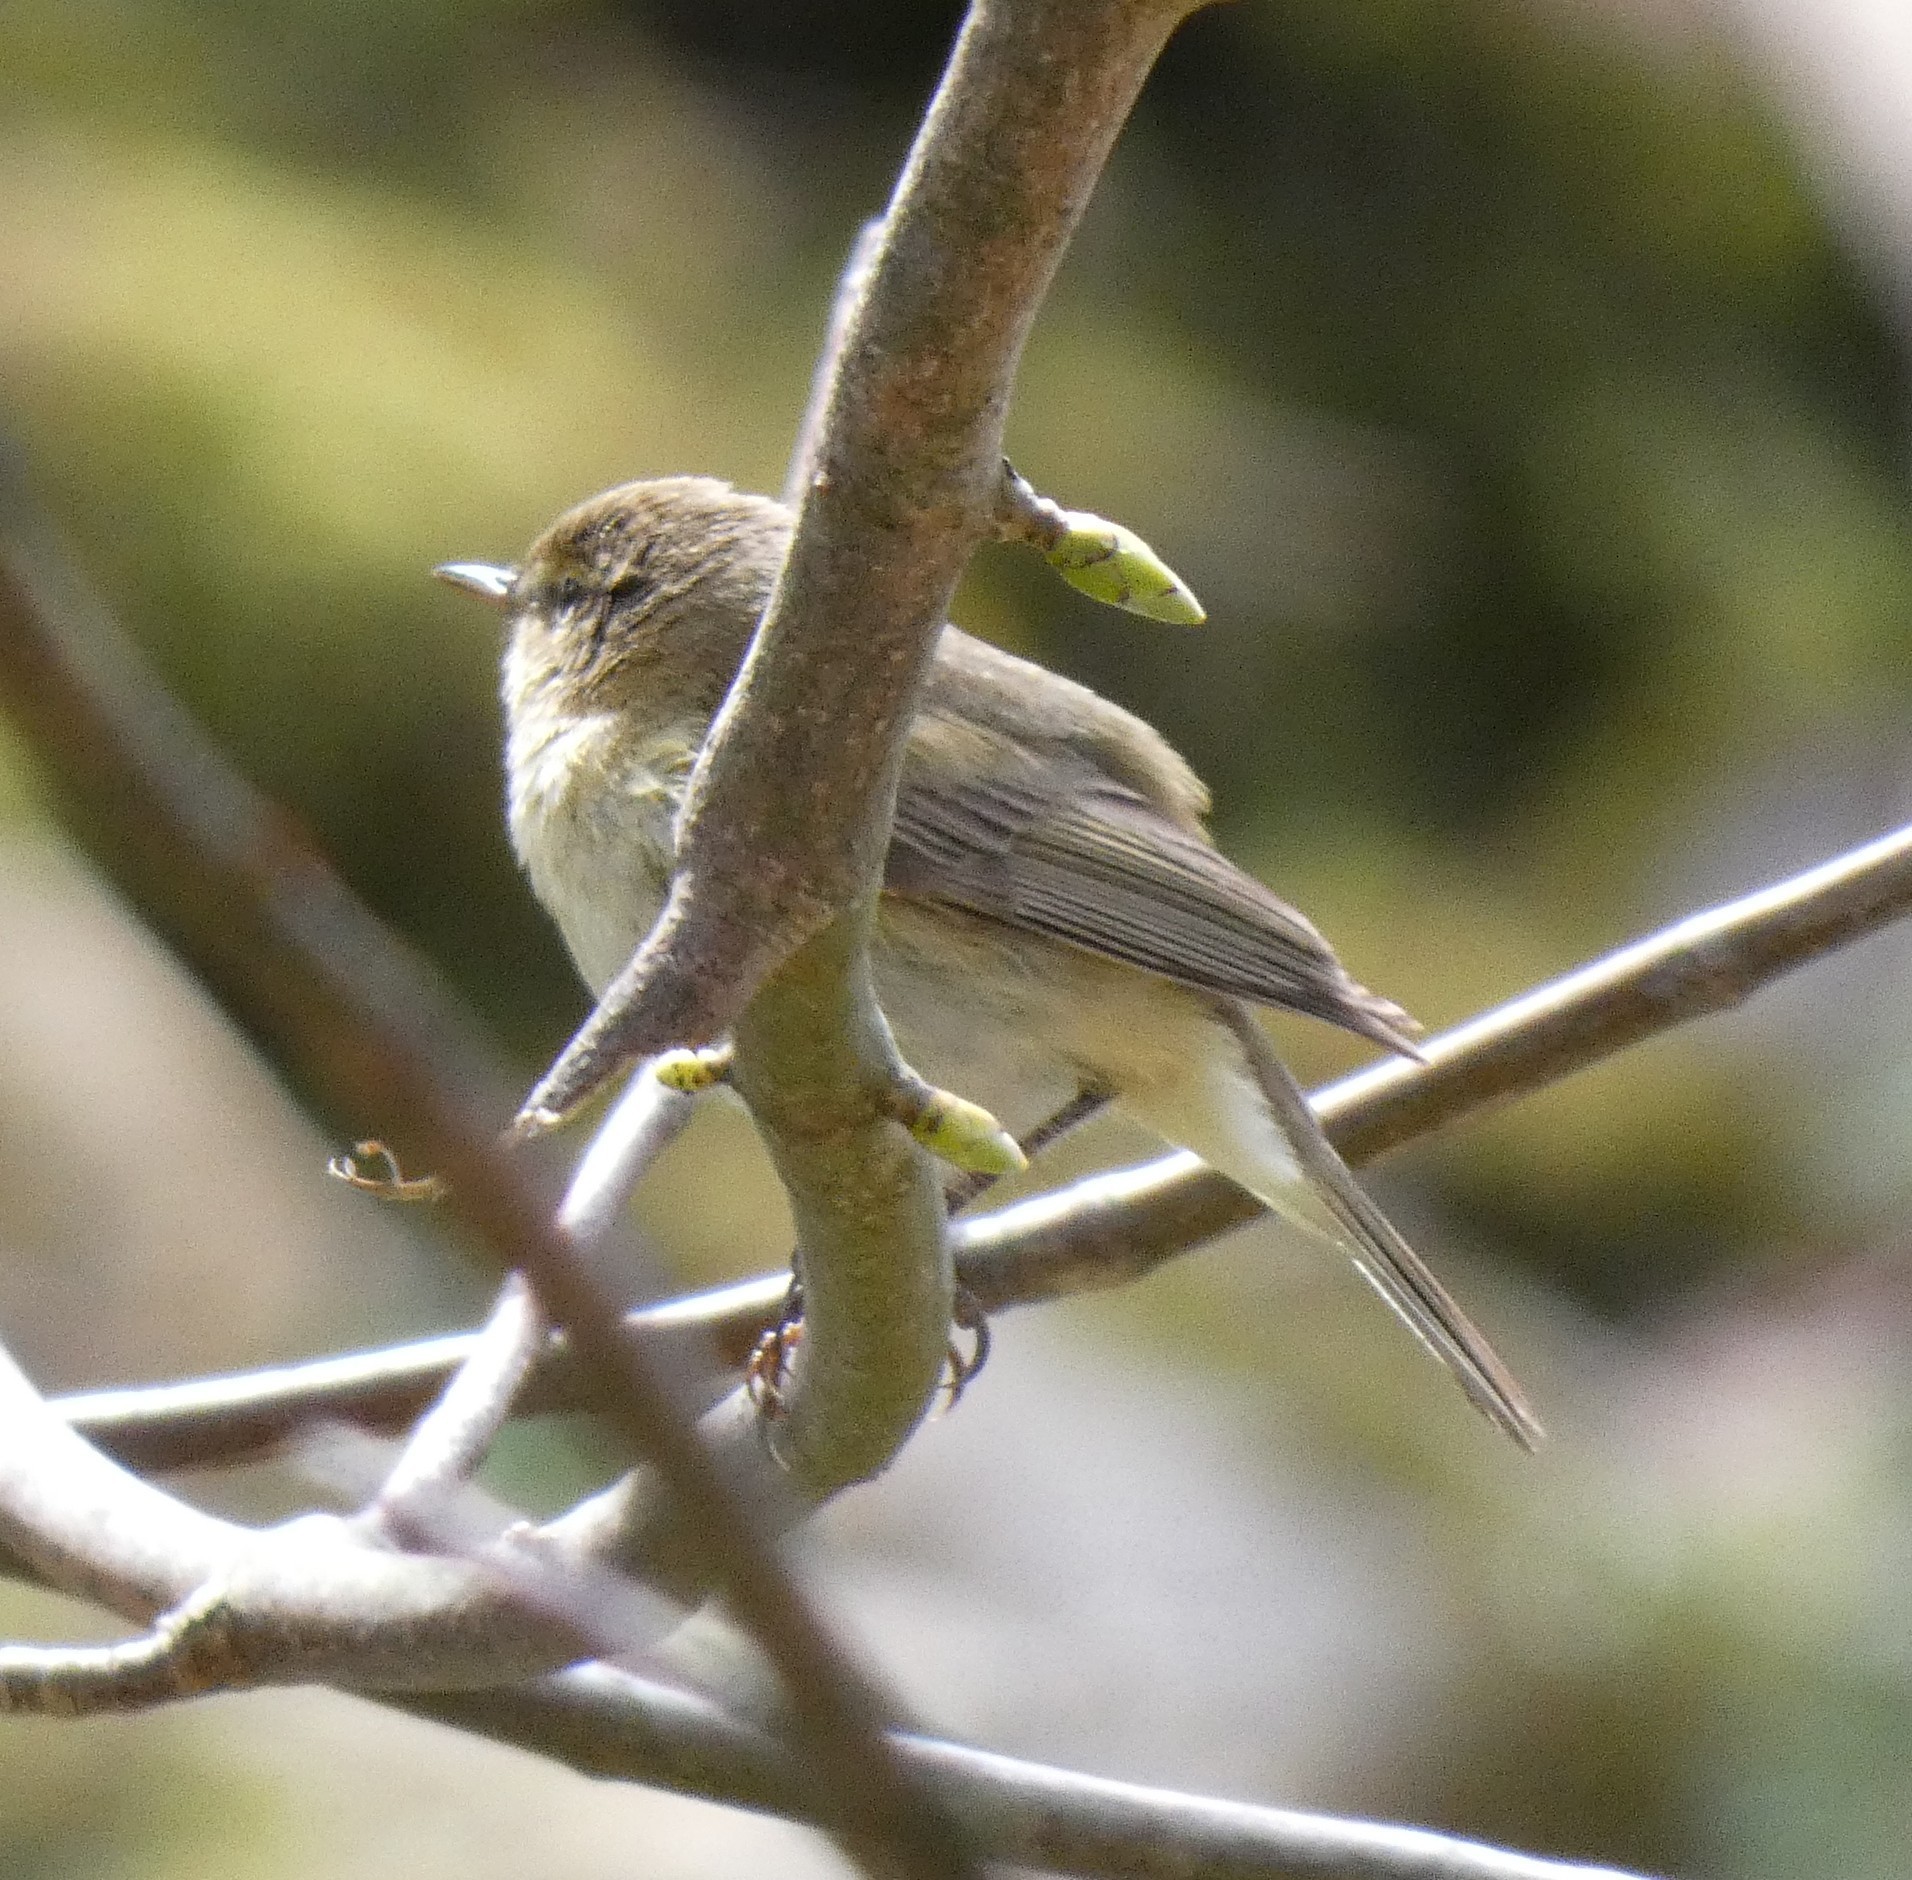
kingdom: Animalia
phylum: Chordata
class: Aves
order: Passeriformes
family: Phylloscopidae
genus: Phylloscopus
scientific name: Phylloscopus collybita
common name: Common chiffchaff
